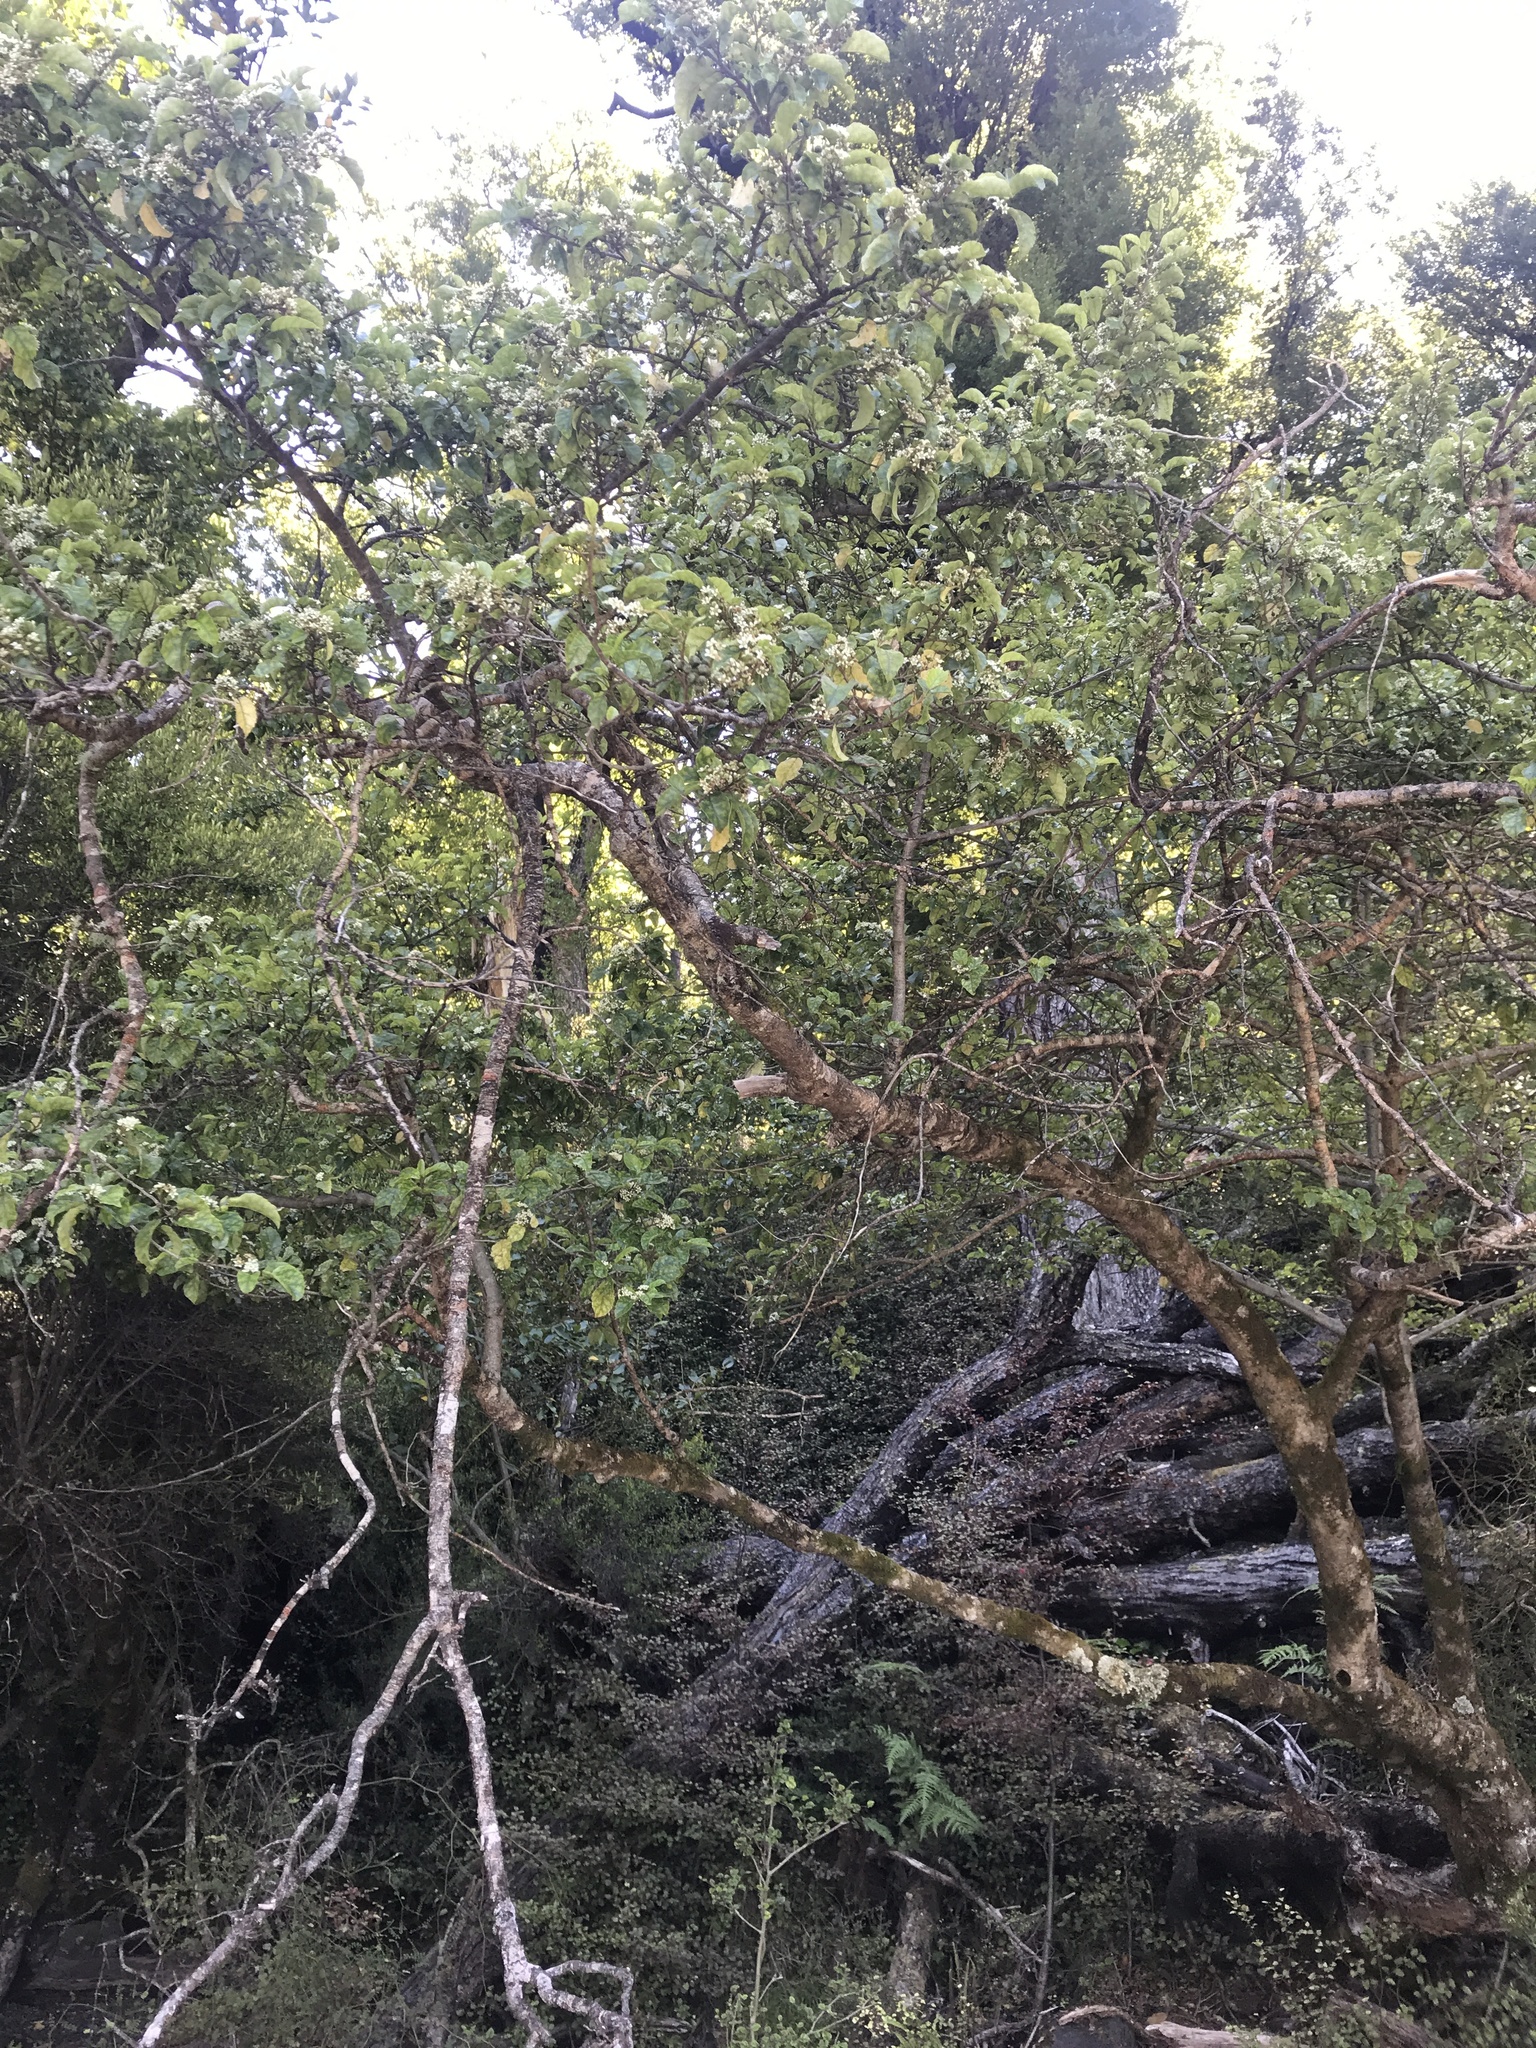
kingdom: Plantae
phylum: Tracheophyta
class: Magnoliopsida
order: Asterales
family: Rousseaceae
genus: Carpodetus
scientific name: Carpodetus serratus
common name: White mapau
